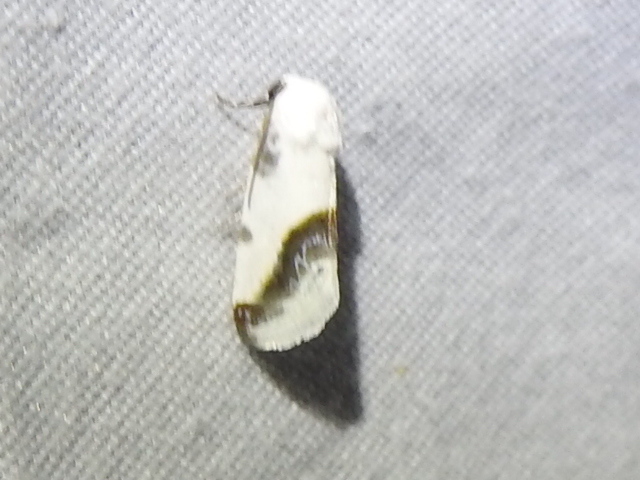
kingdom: Animalia
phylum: Arthropoda
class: Insecta
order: Lepidoptera
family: Noctuidae
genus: Acontia
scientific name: Acontia cretata
